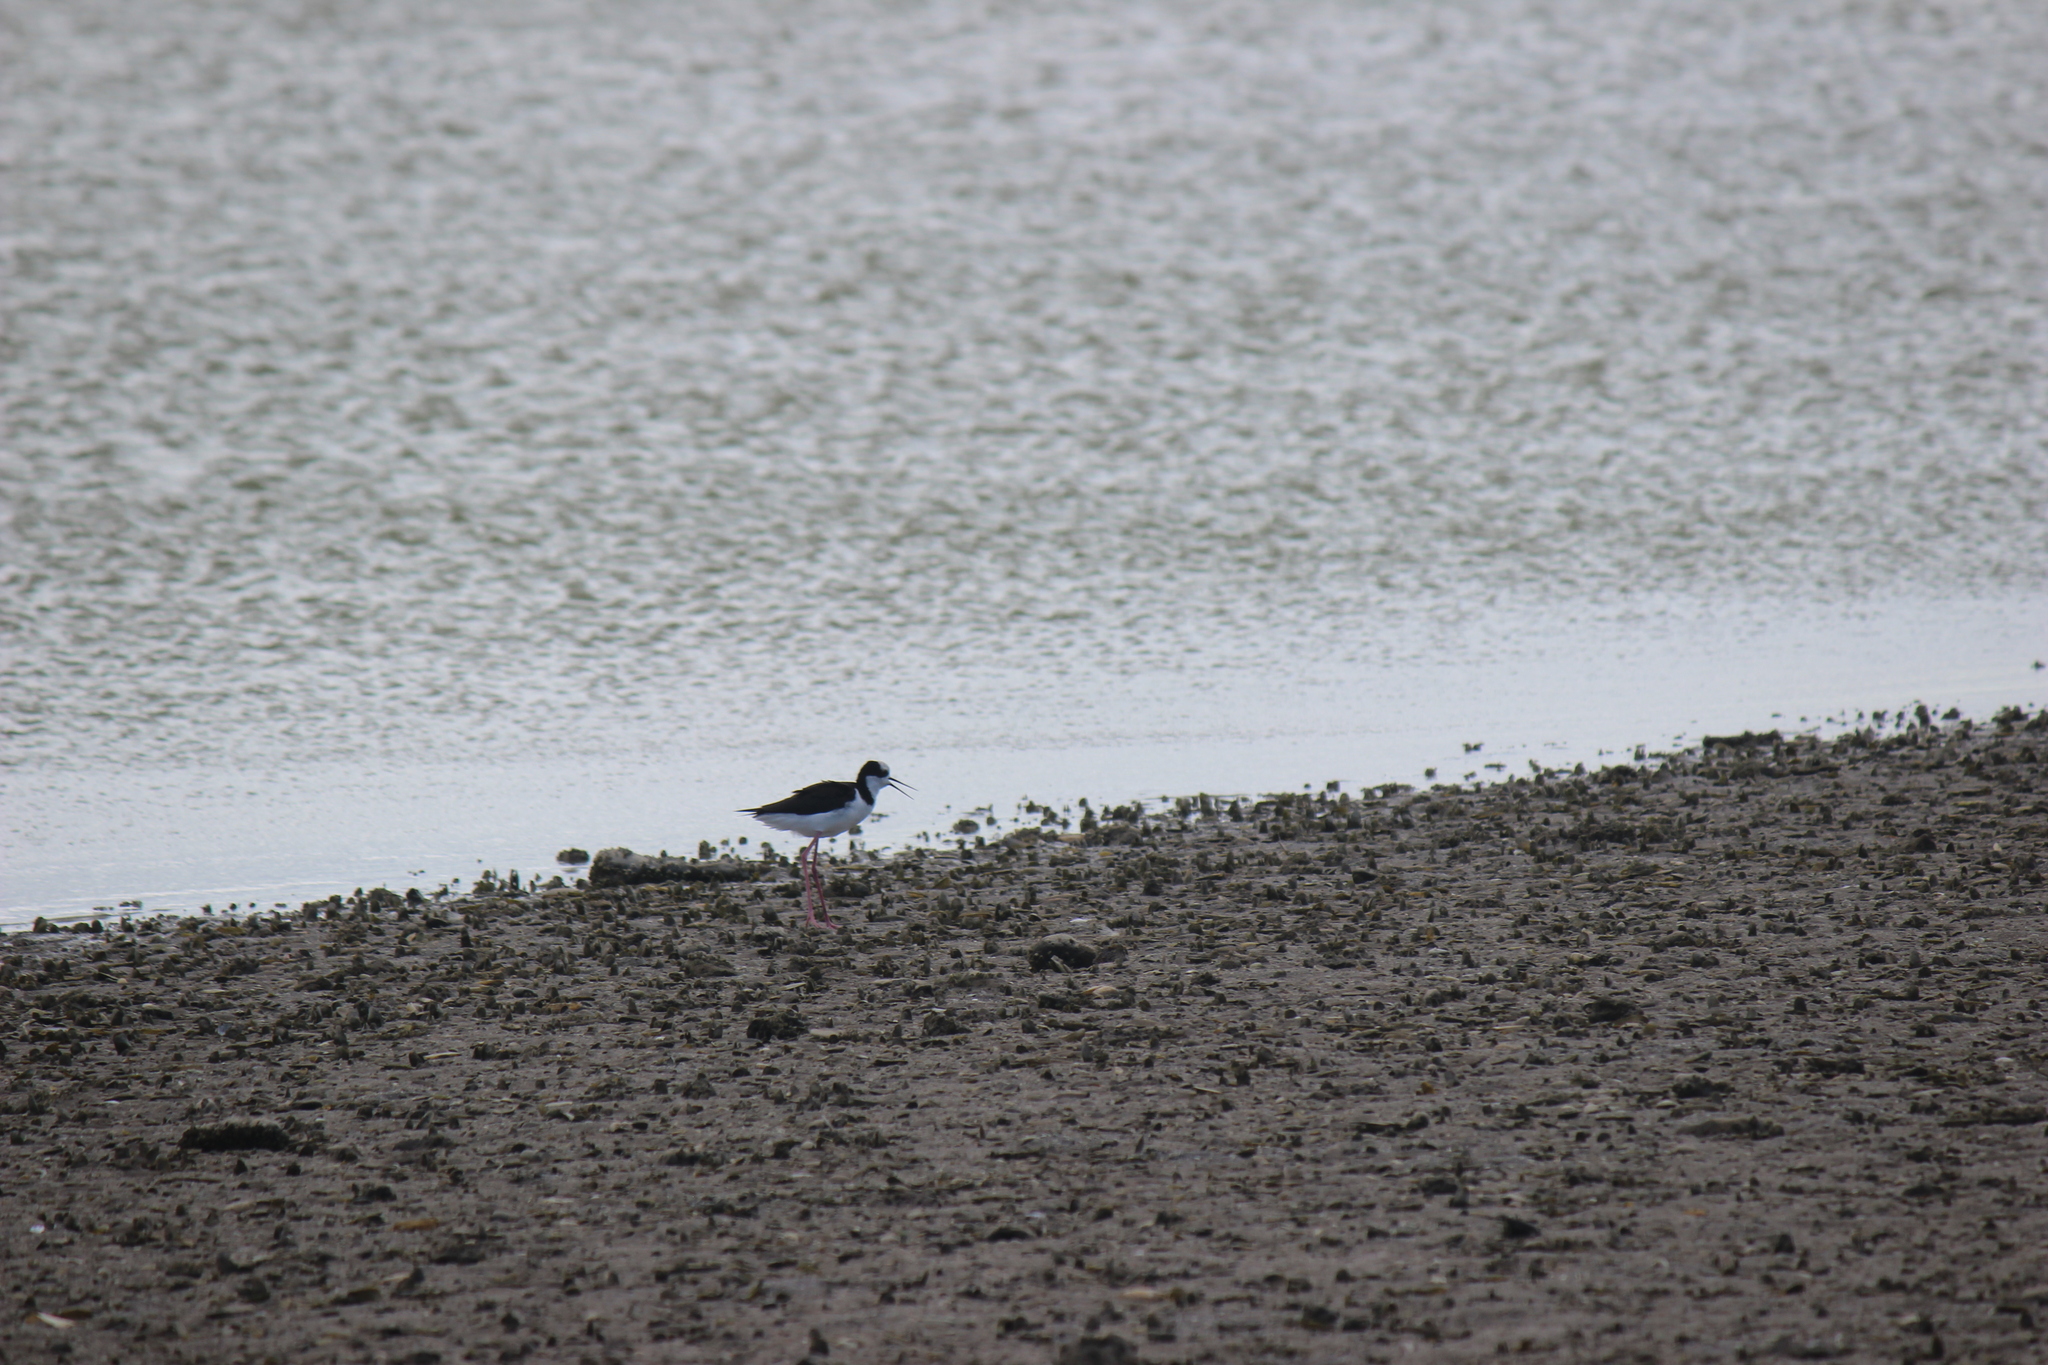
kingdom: Animalia
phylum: Chordata
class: Aves
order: Charadriiformes
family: Recurvirostridae
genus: Himantopus
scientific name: Himantopus mexicanus
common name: Black-necked stilt
